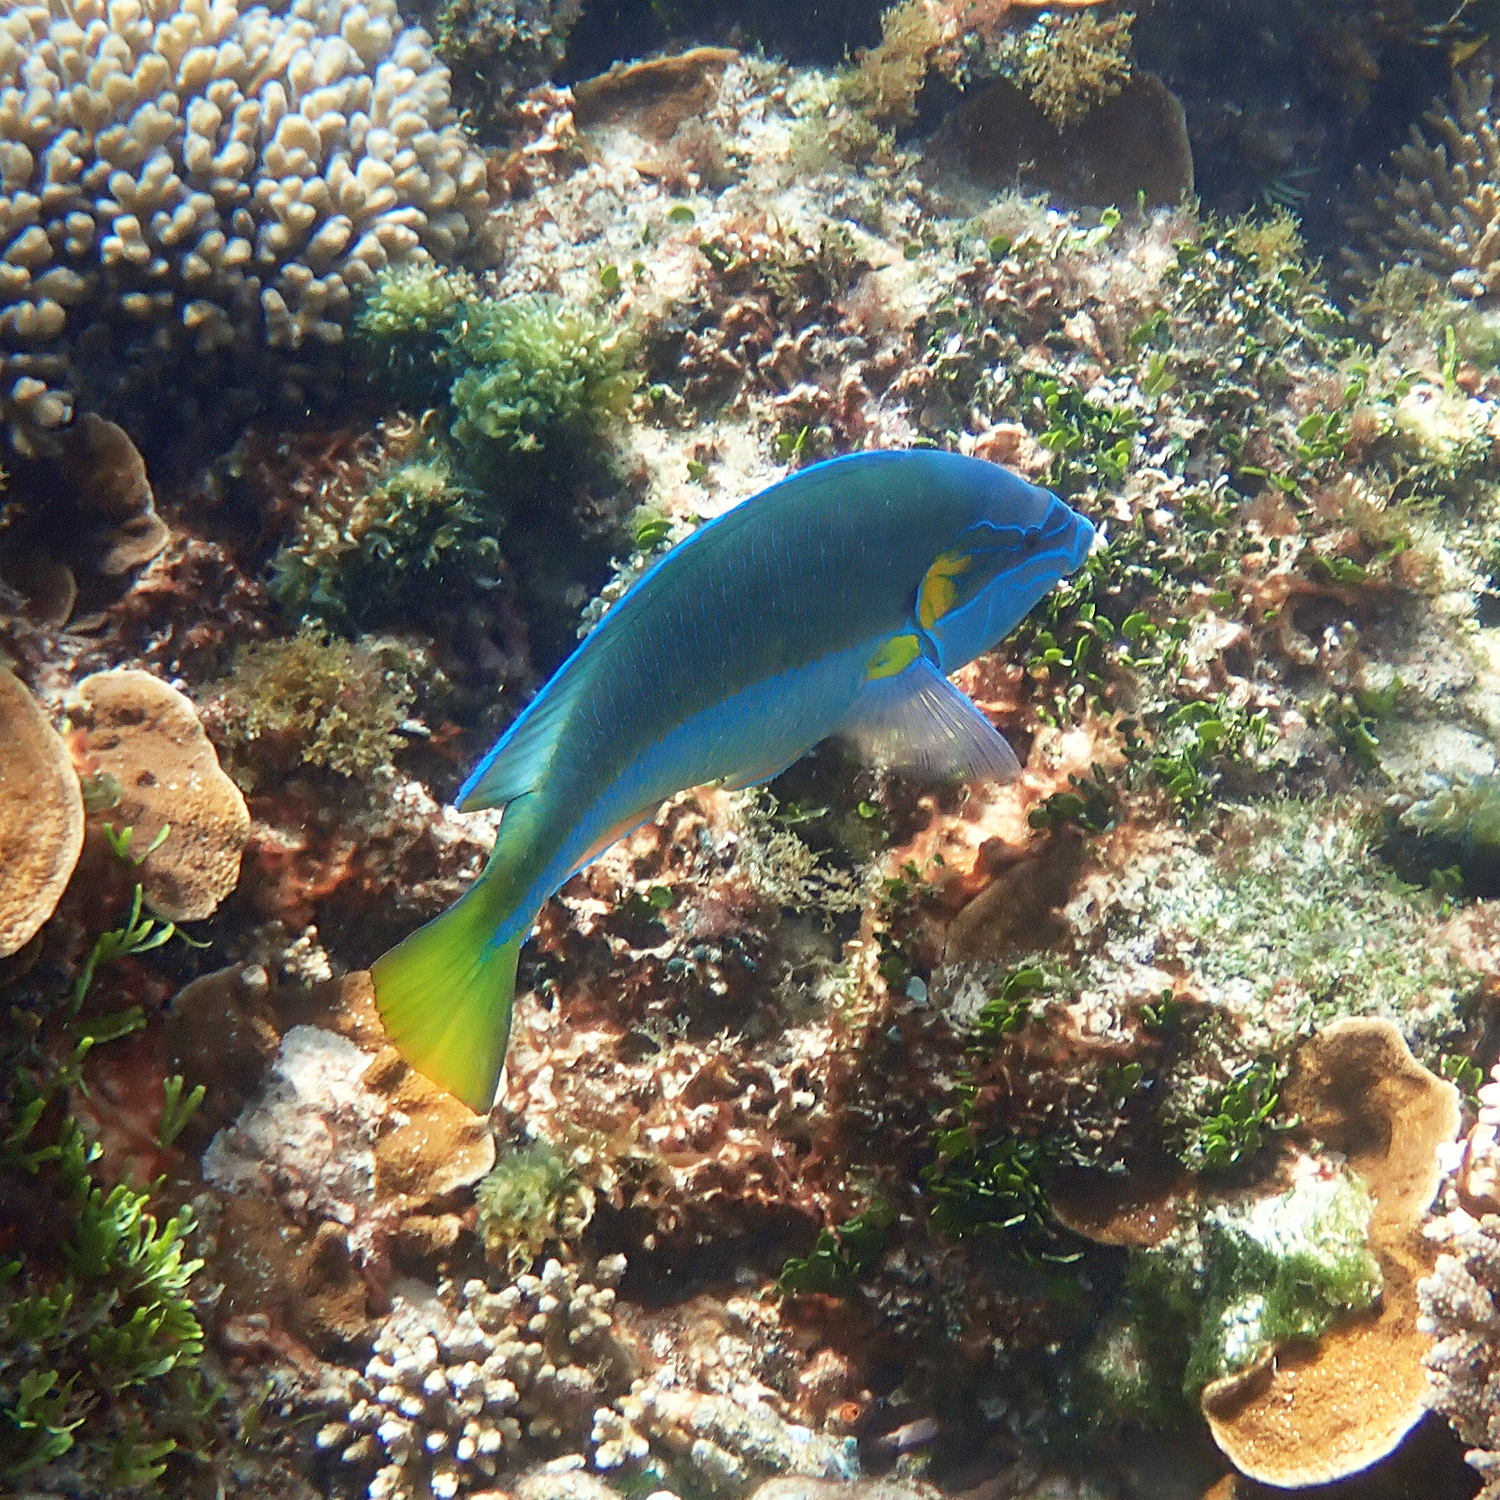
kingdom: Animalia
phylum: Chordata
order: Perciformes
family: Labridae
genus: Anampses
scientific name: Anampses elegans
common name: Elegant wrasse
